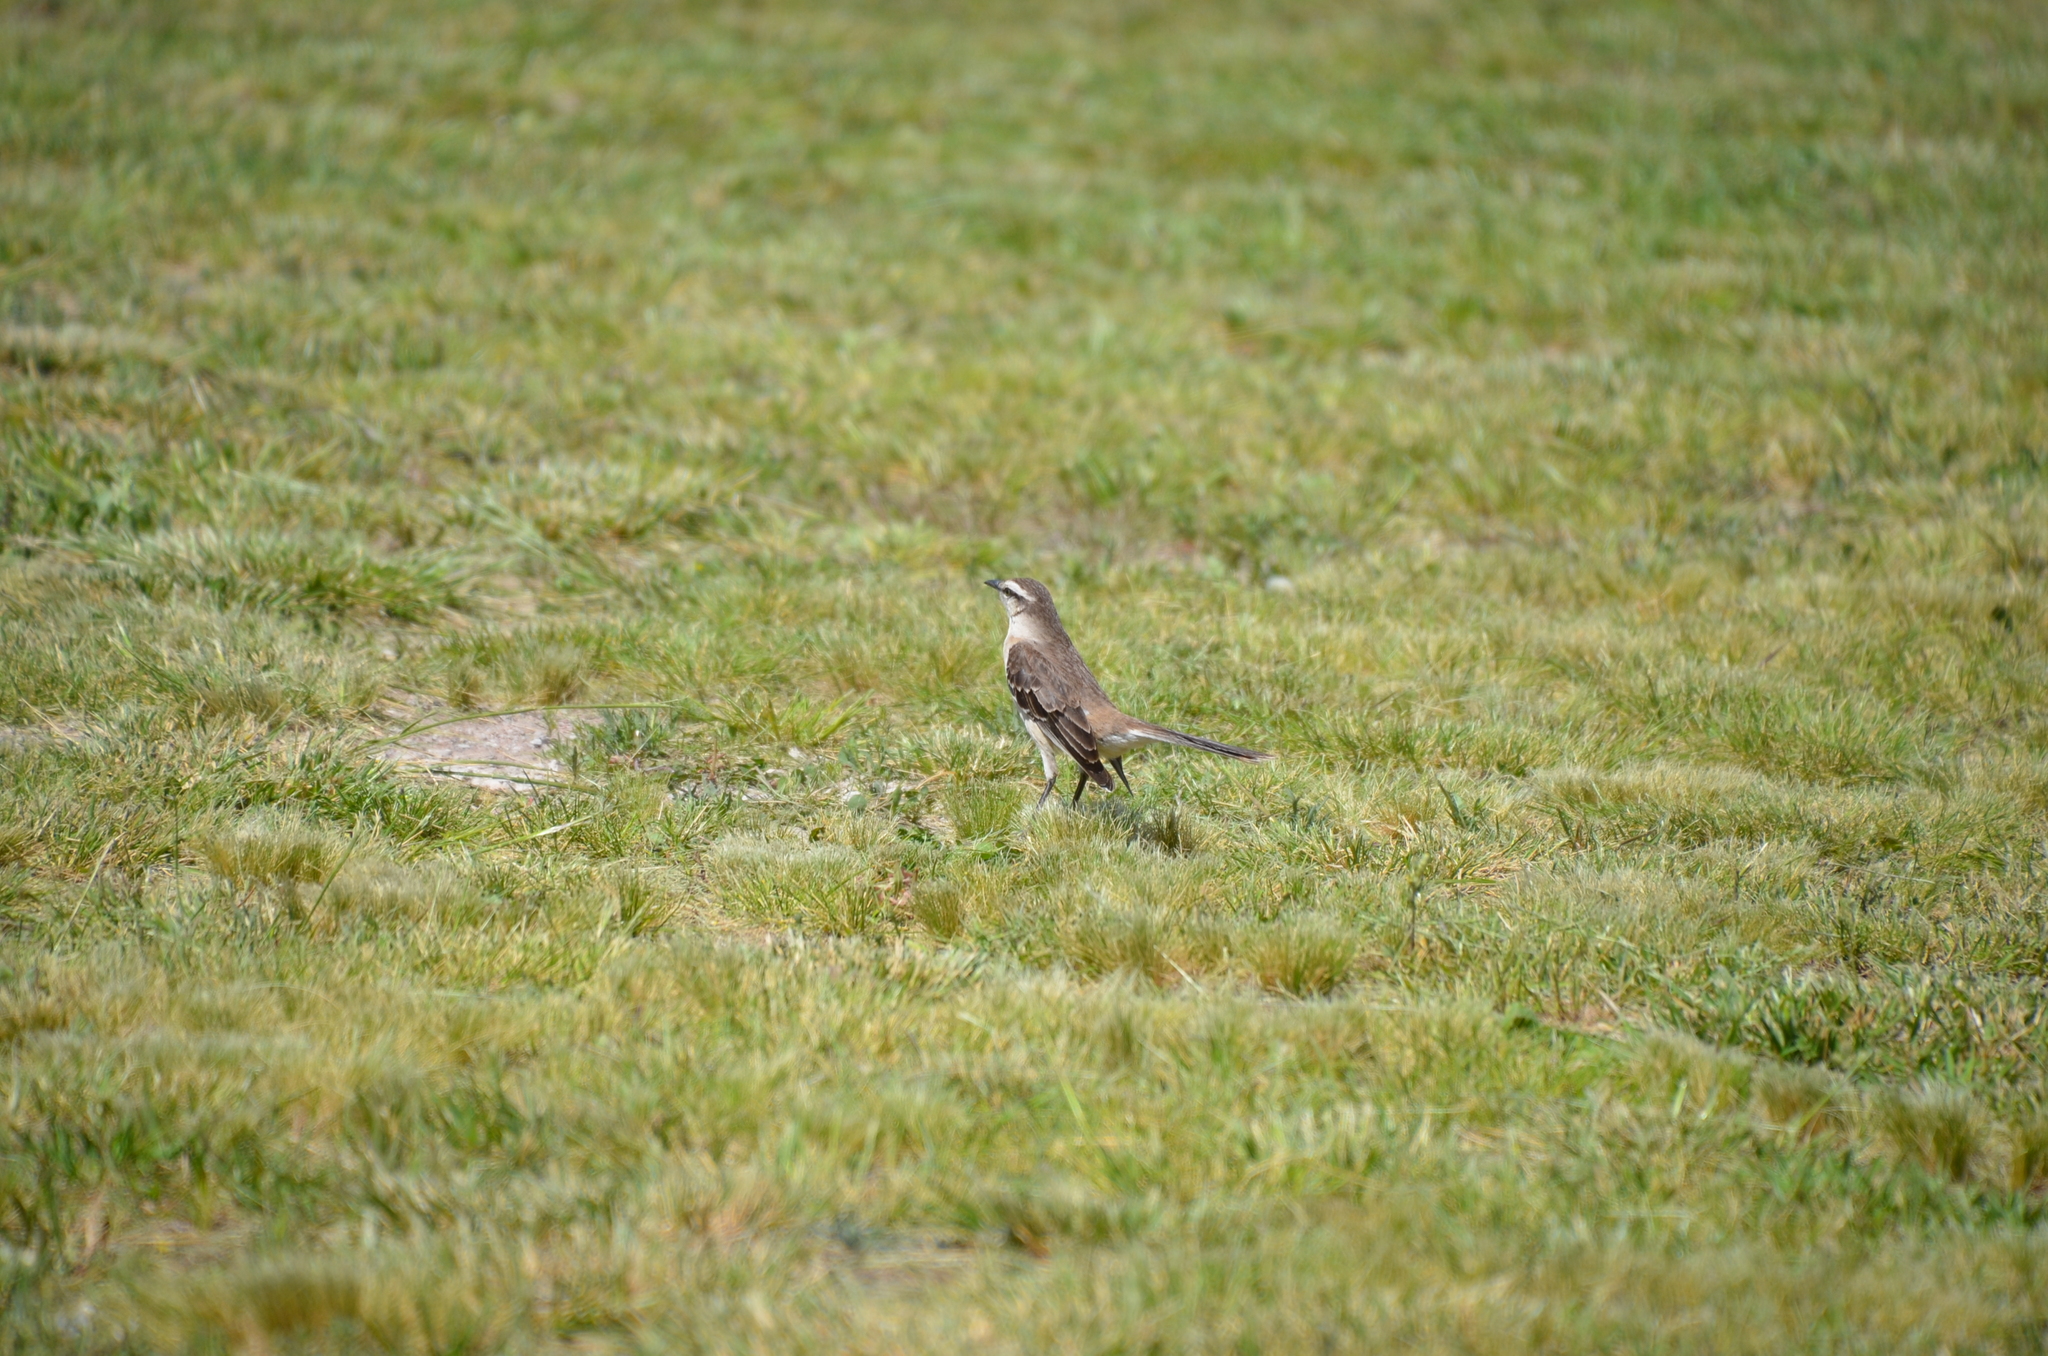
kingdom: Animalia
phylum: Chordata
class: Aves
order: Passeriformes
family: Mimidae
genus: Mimus
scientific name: Mimus saturninus
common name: Chalk-browed mockingbird
